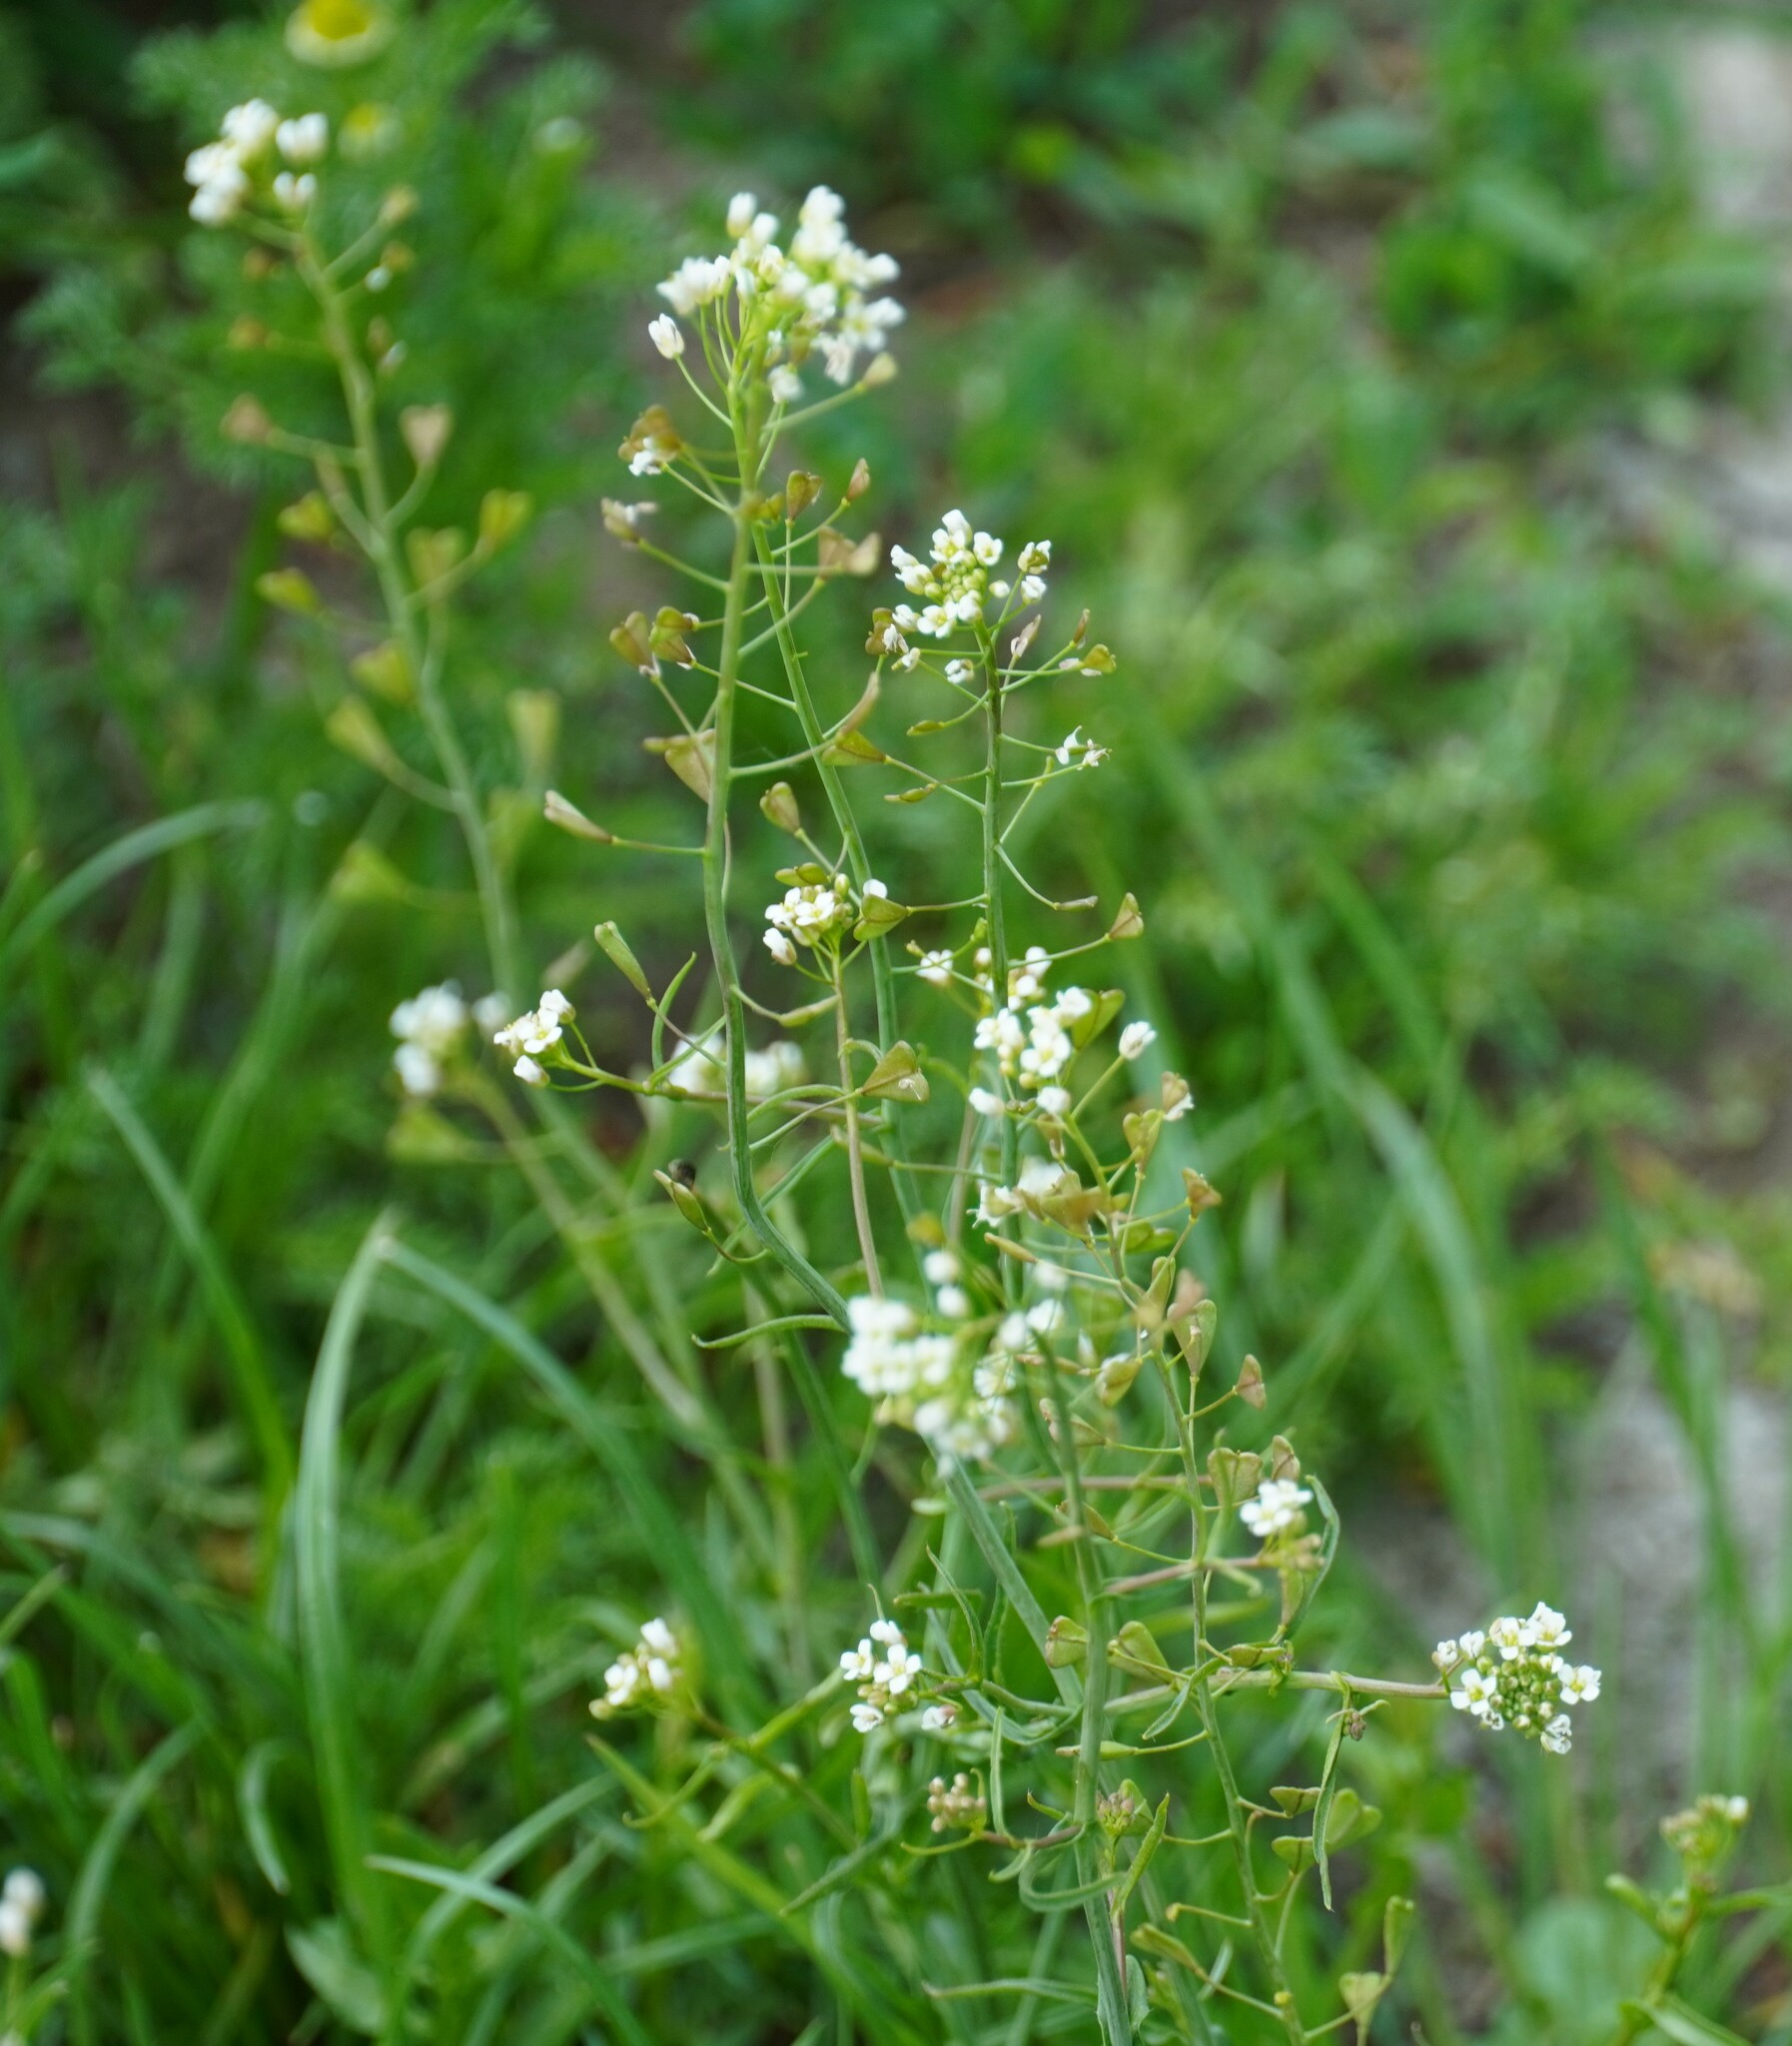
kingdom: Plantae
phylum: Tracheophyta
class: Magnoliopsida
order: Brassicales
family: Brassicaceae
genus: Capsella
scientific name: Capsella bursa-pastoris
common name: Shepherd's purse
